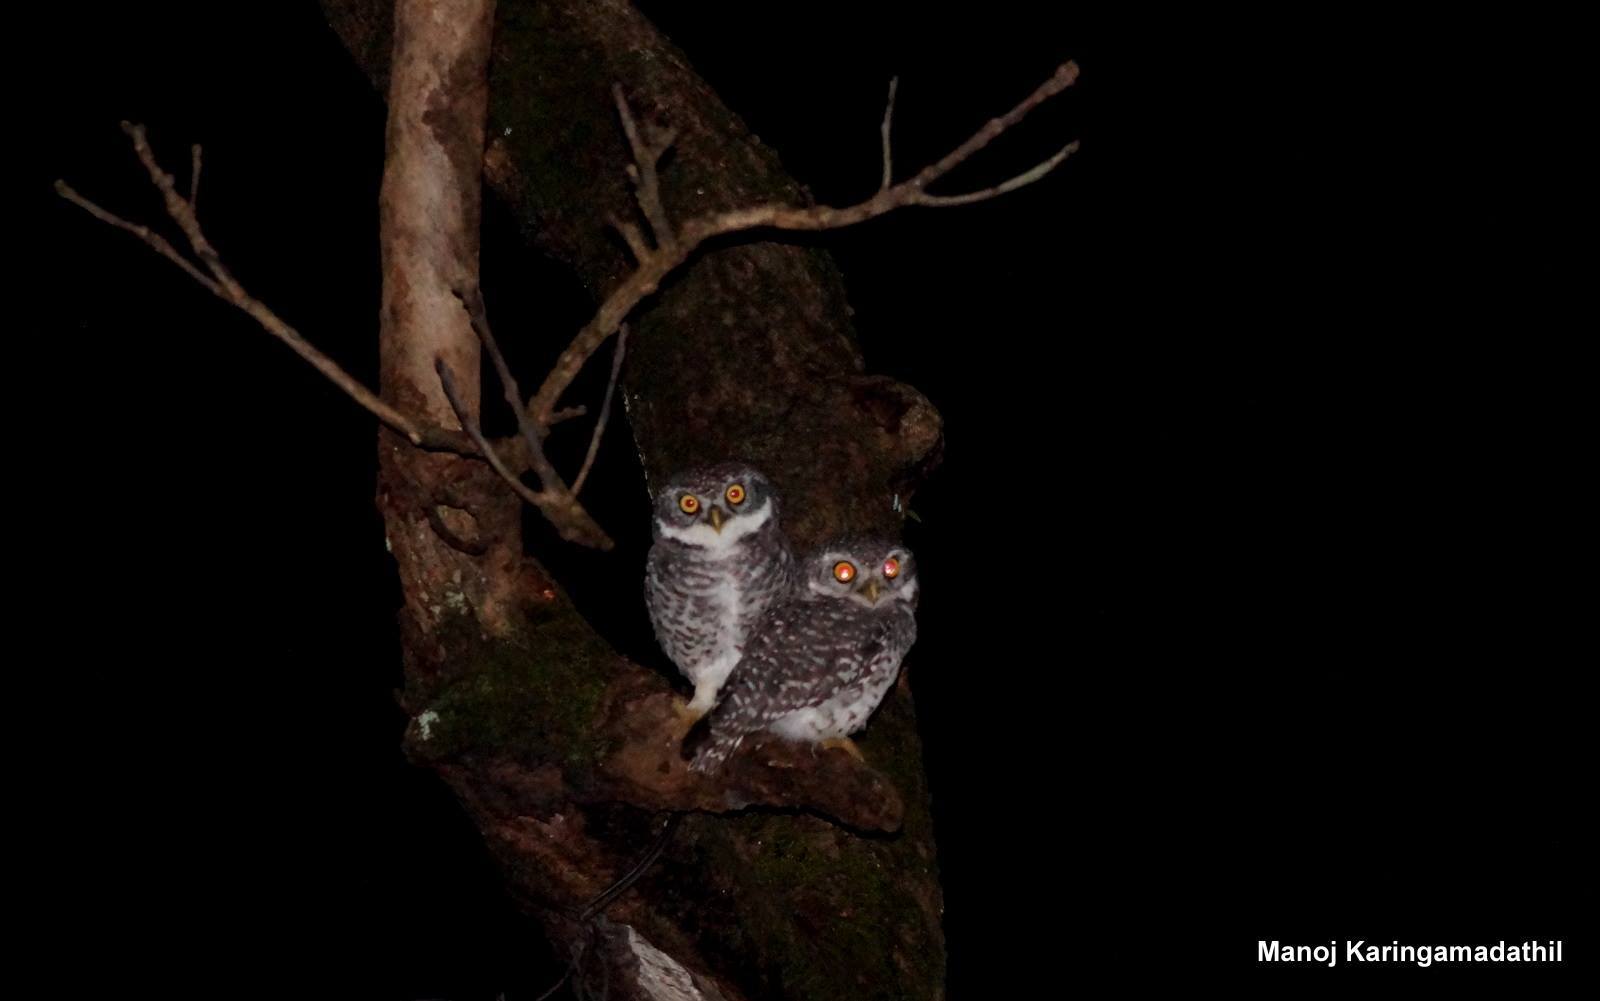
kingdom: Animalia
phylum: Chordata
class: Aves
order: Strigiformes
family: Strigidae
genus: Athene
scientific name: Athene brama
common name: Spotted owlet
